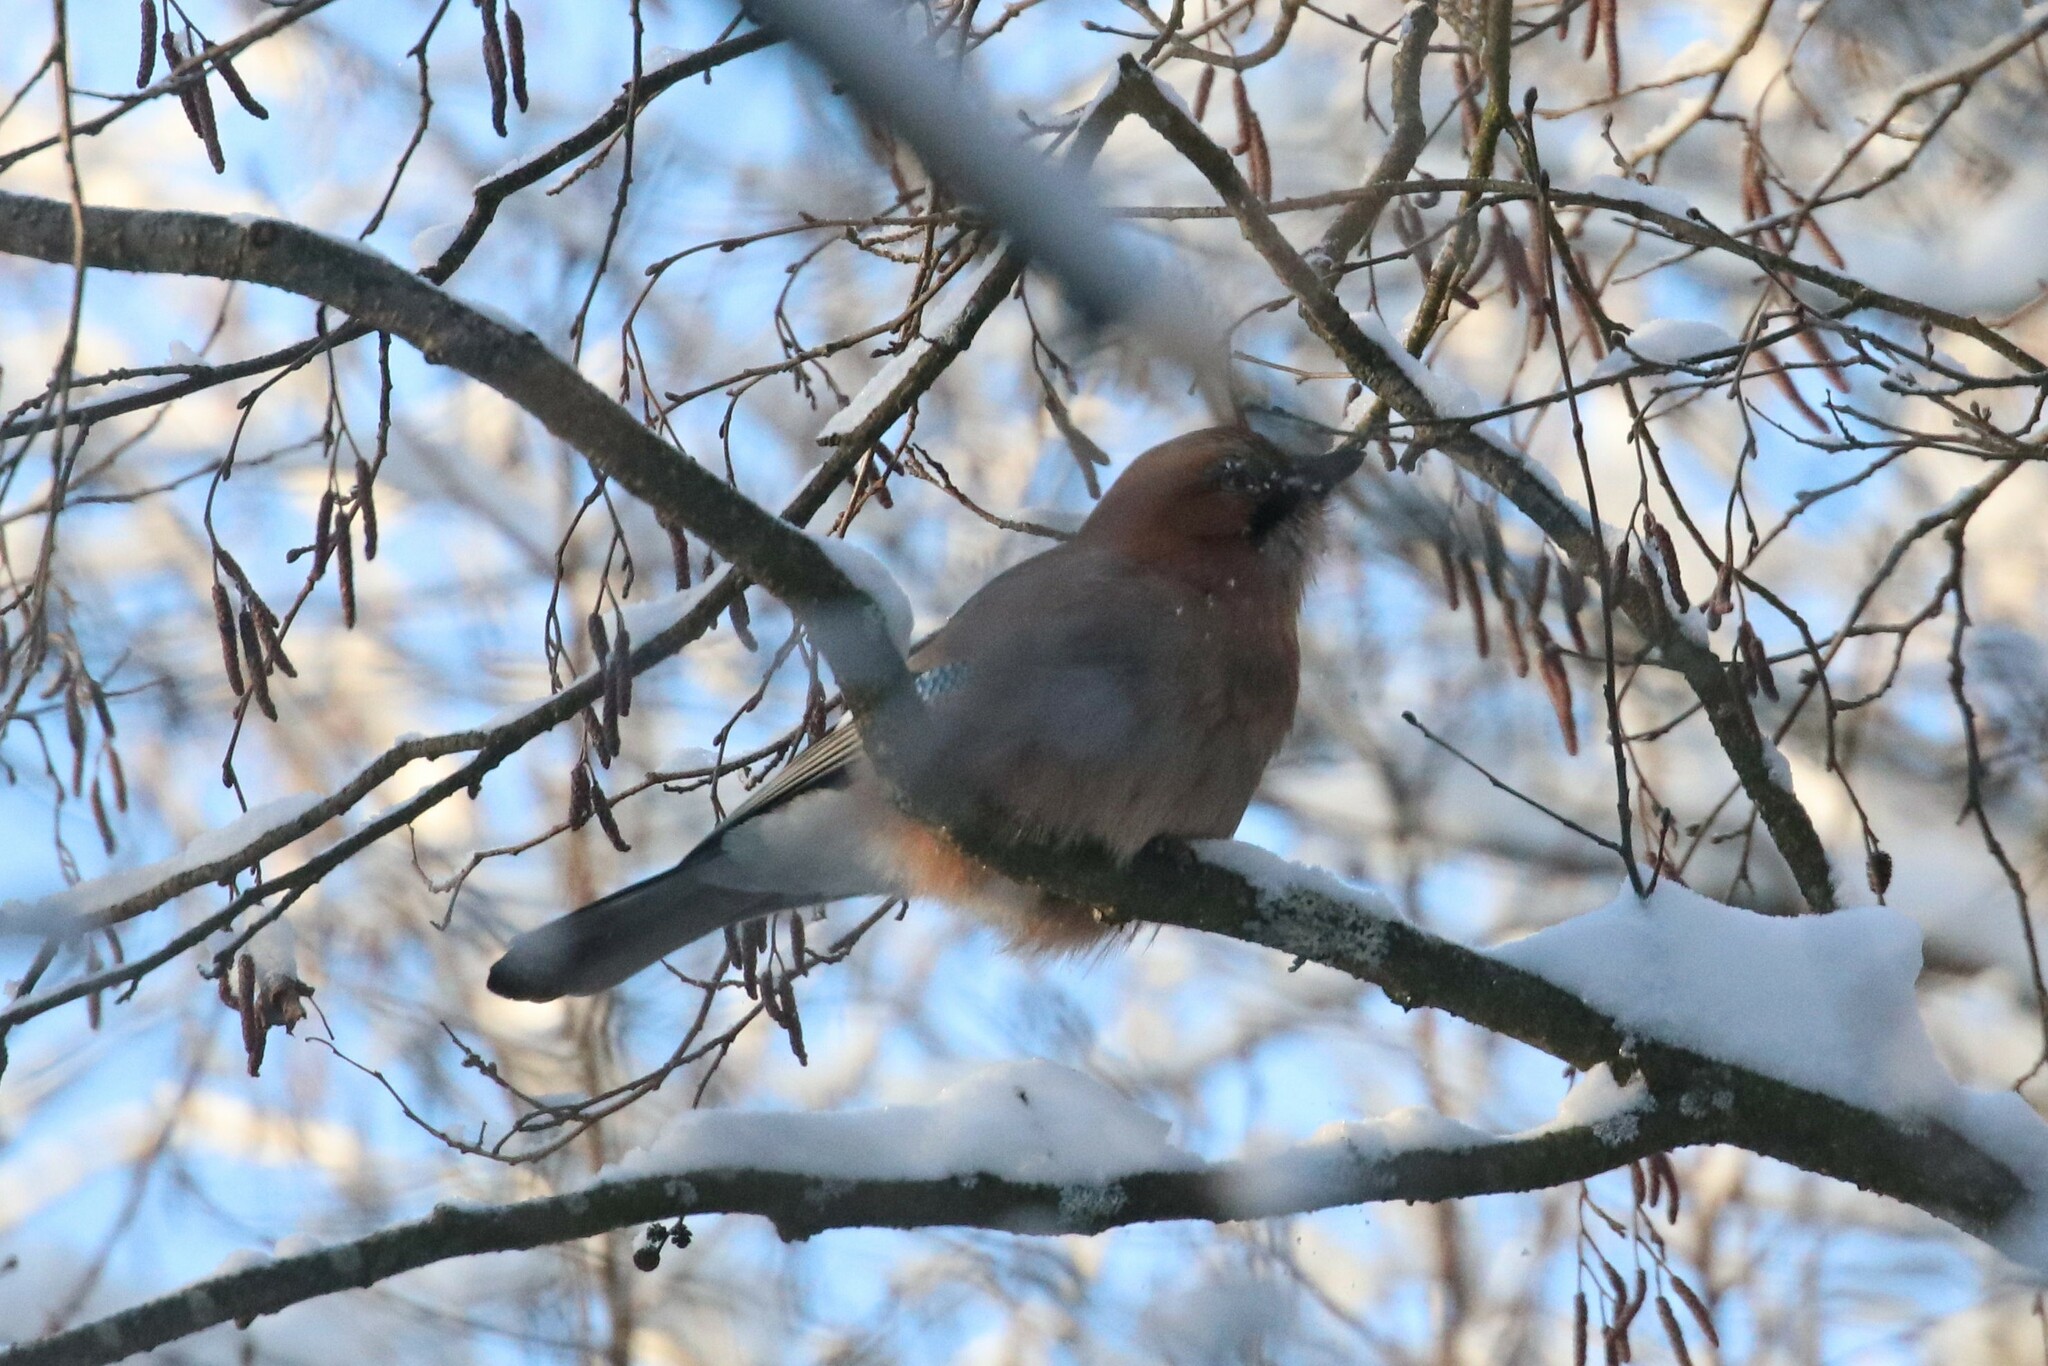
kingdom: Animalia
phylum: Chordata
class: Aves
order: Passeriformes
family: Corvidae
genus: Garrulus
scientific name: Garrulus glandarius
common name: Eurasian jay
